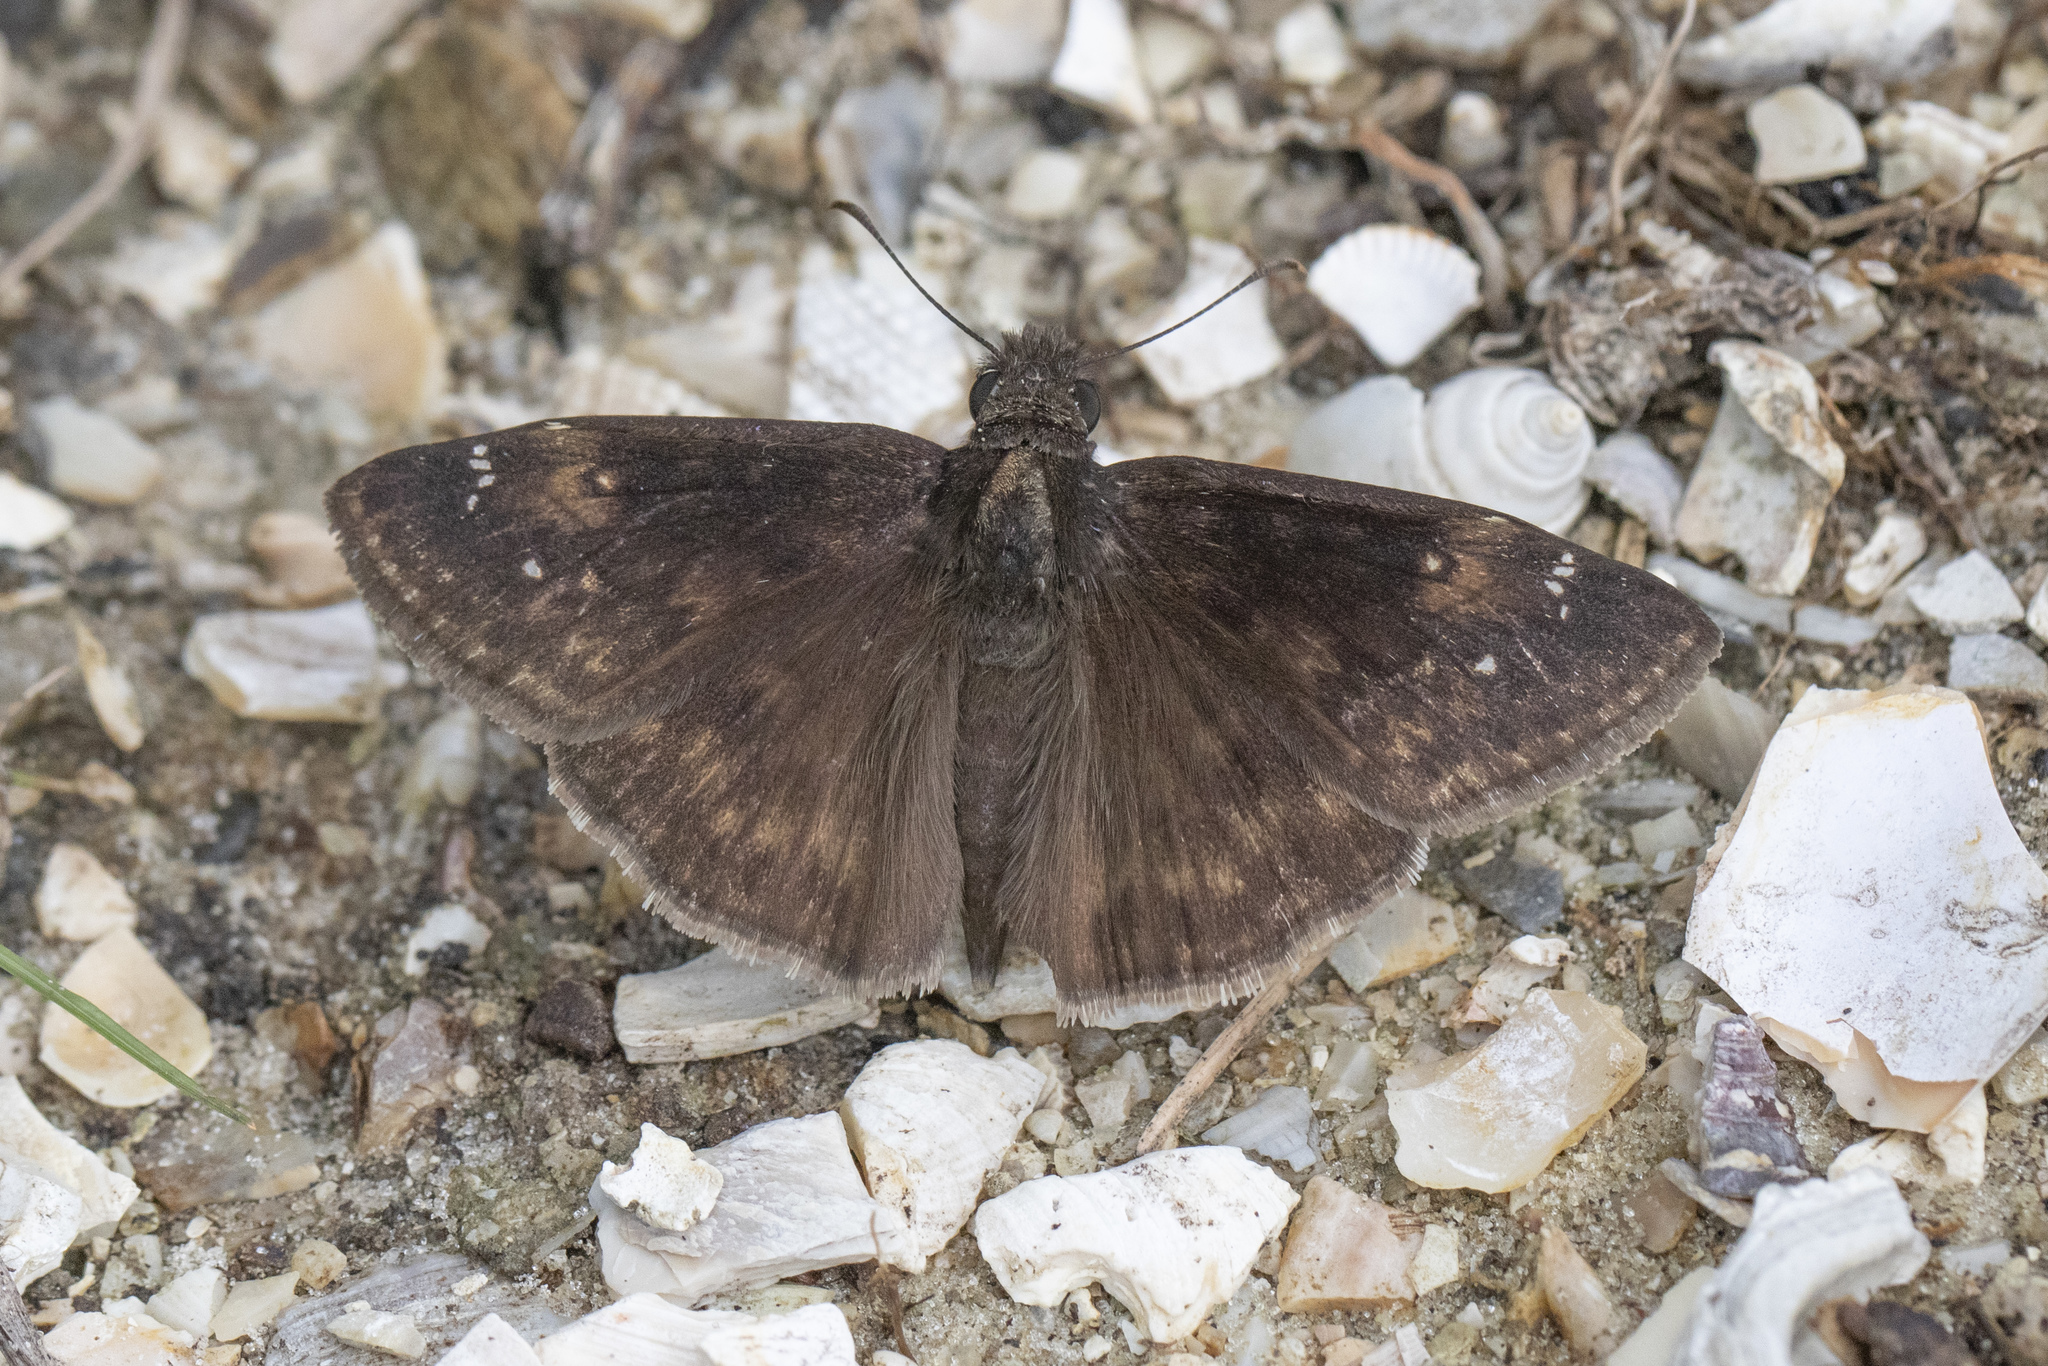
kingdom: Animalia
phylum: Arthropoda
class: Insecta
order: Lepidoptera
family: Hesperiidae
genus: Erynnis
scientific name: Erynnis horatius
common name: Horace's duskywing
